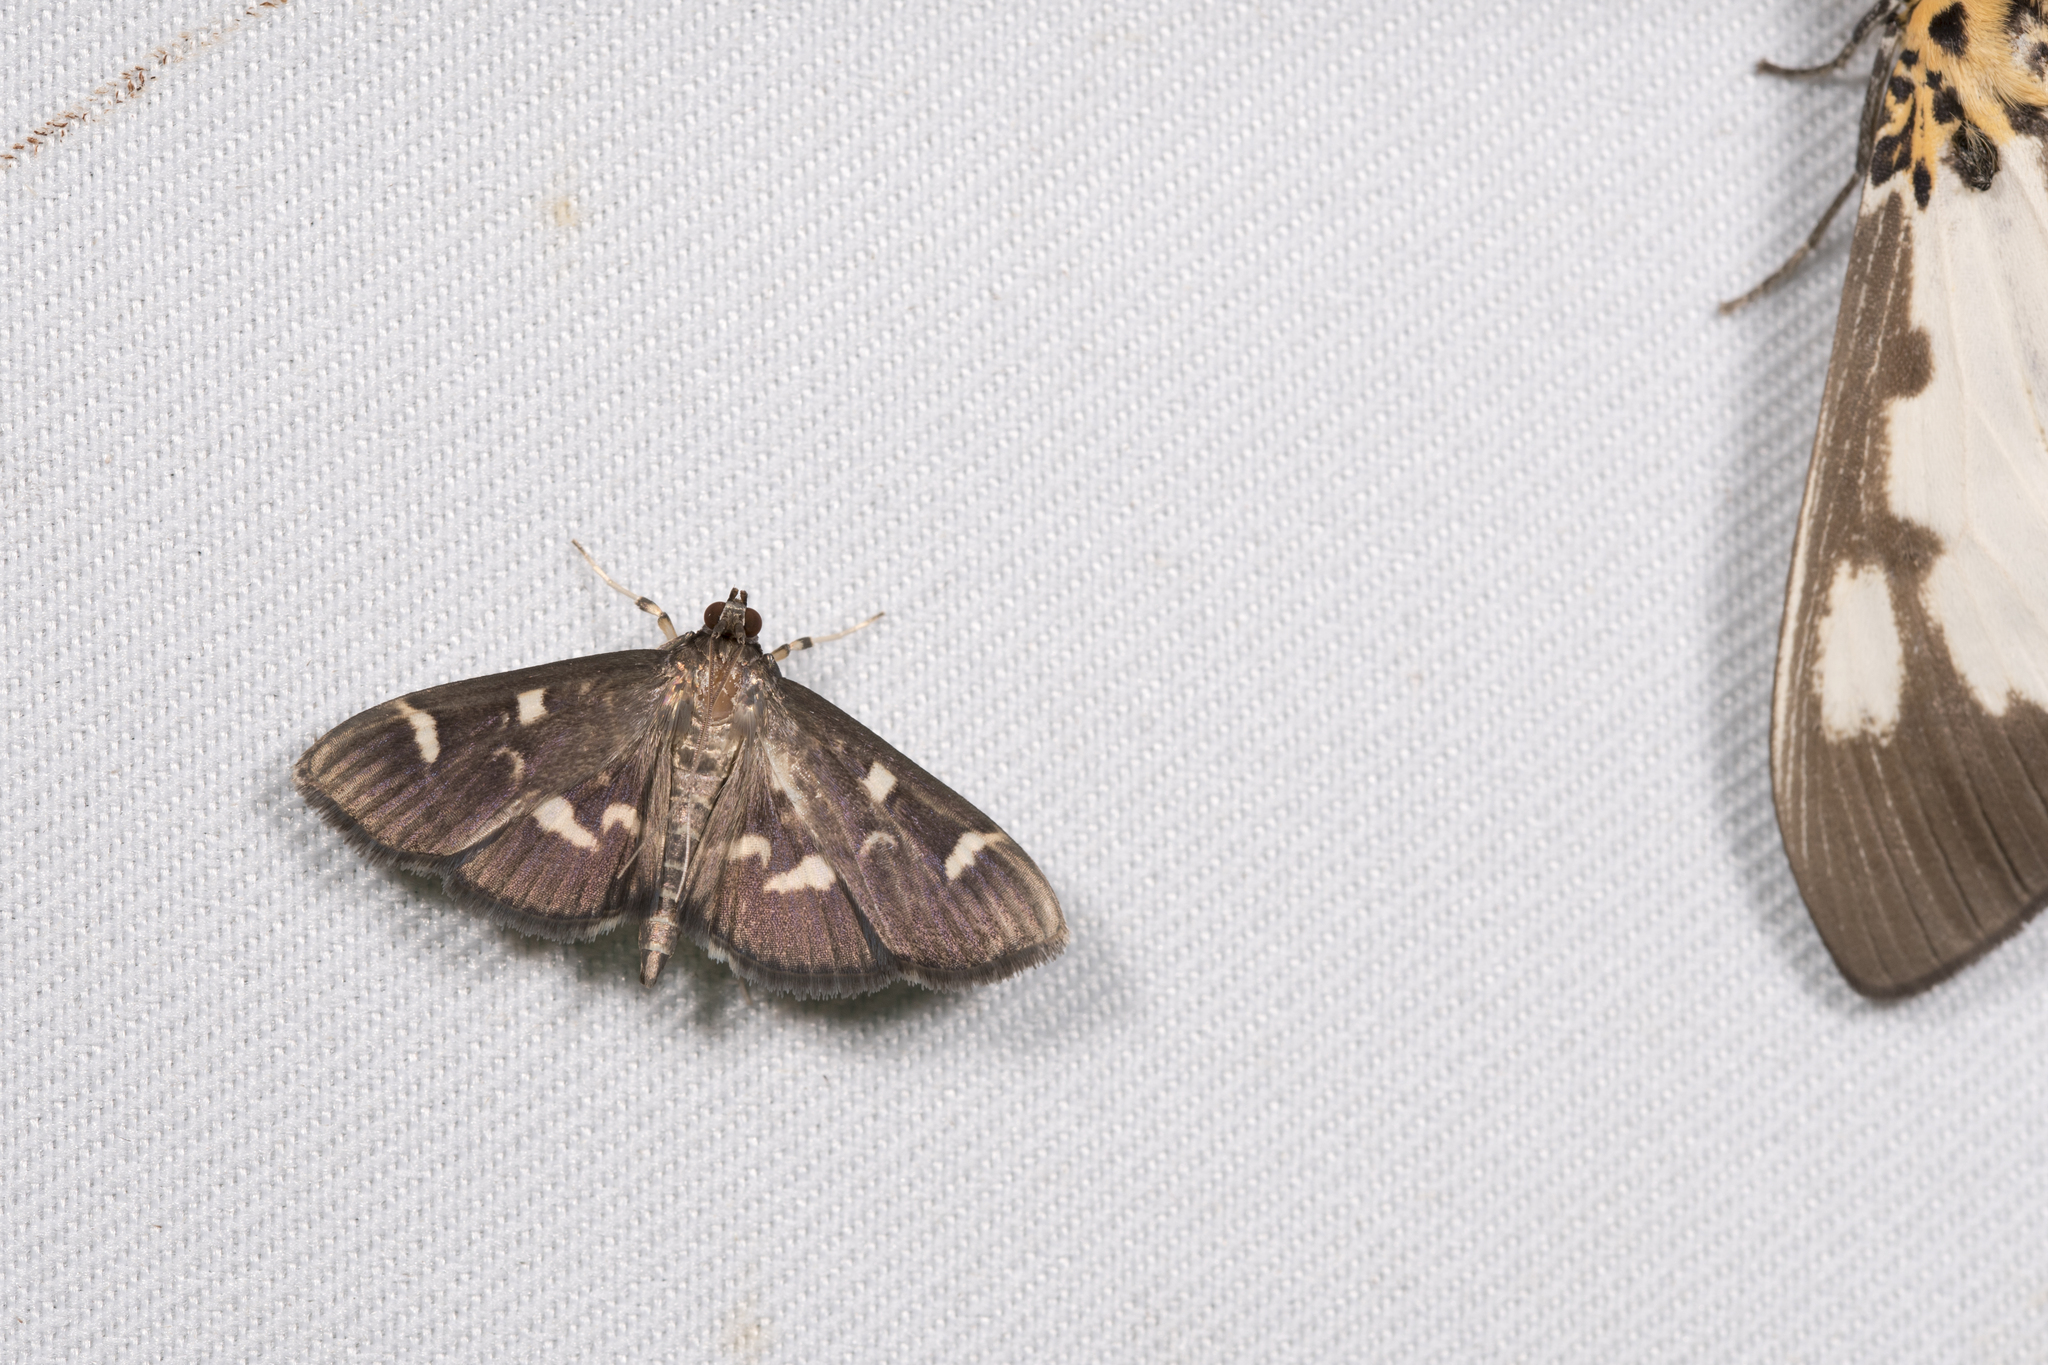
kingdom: Animalia
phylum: Arthropoda
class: Insecta
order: Lepidoptera
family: Crambidae
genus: Herpetogramma
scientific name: Herpetogramma luctuosalis
